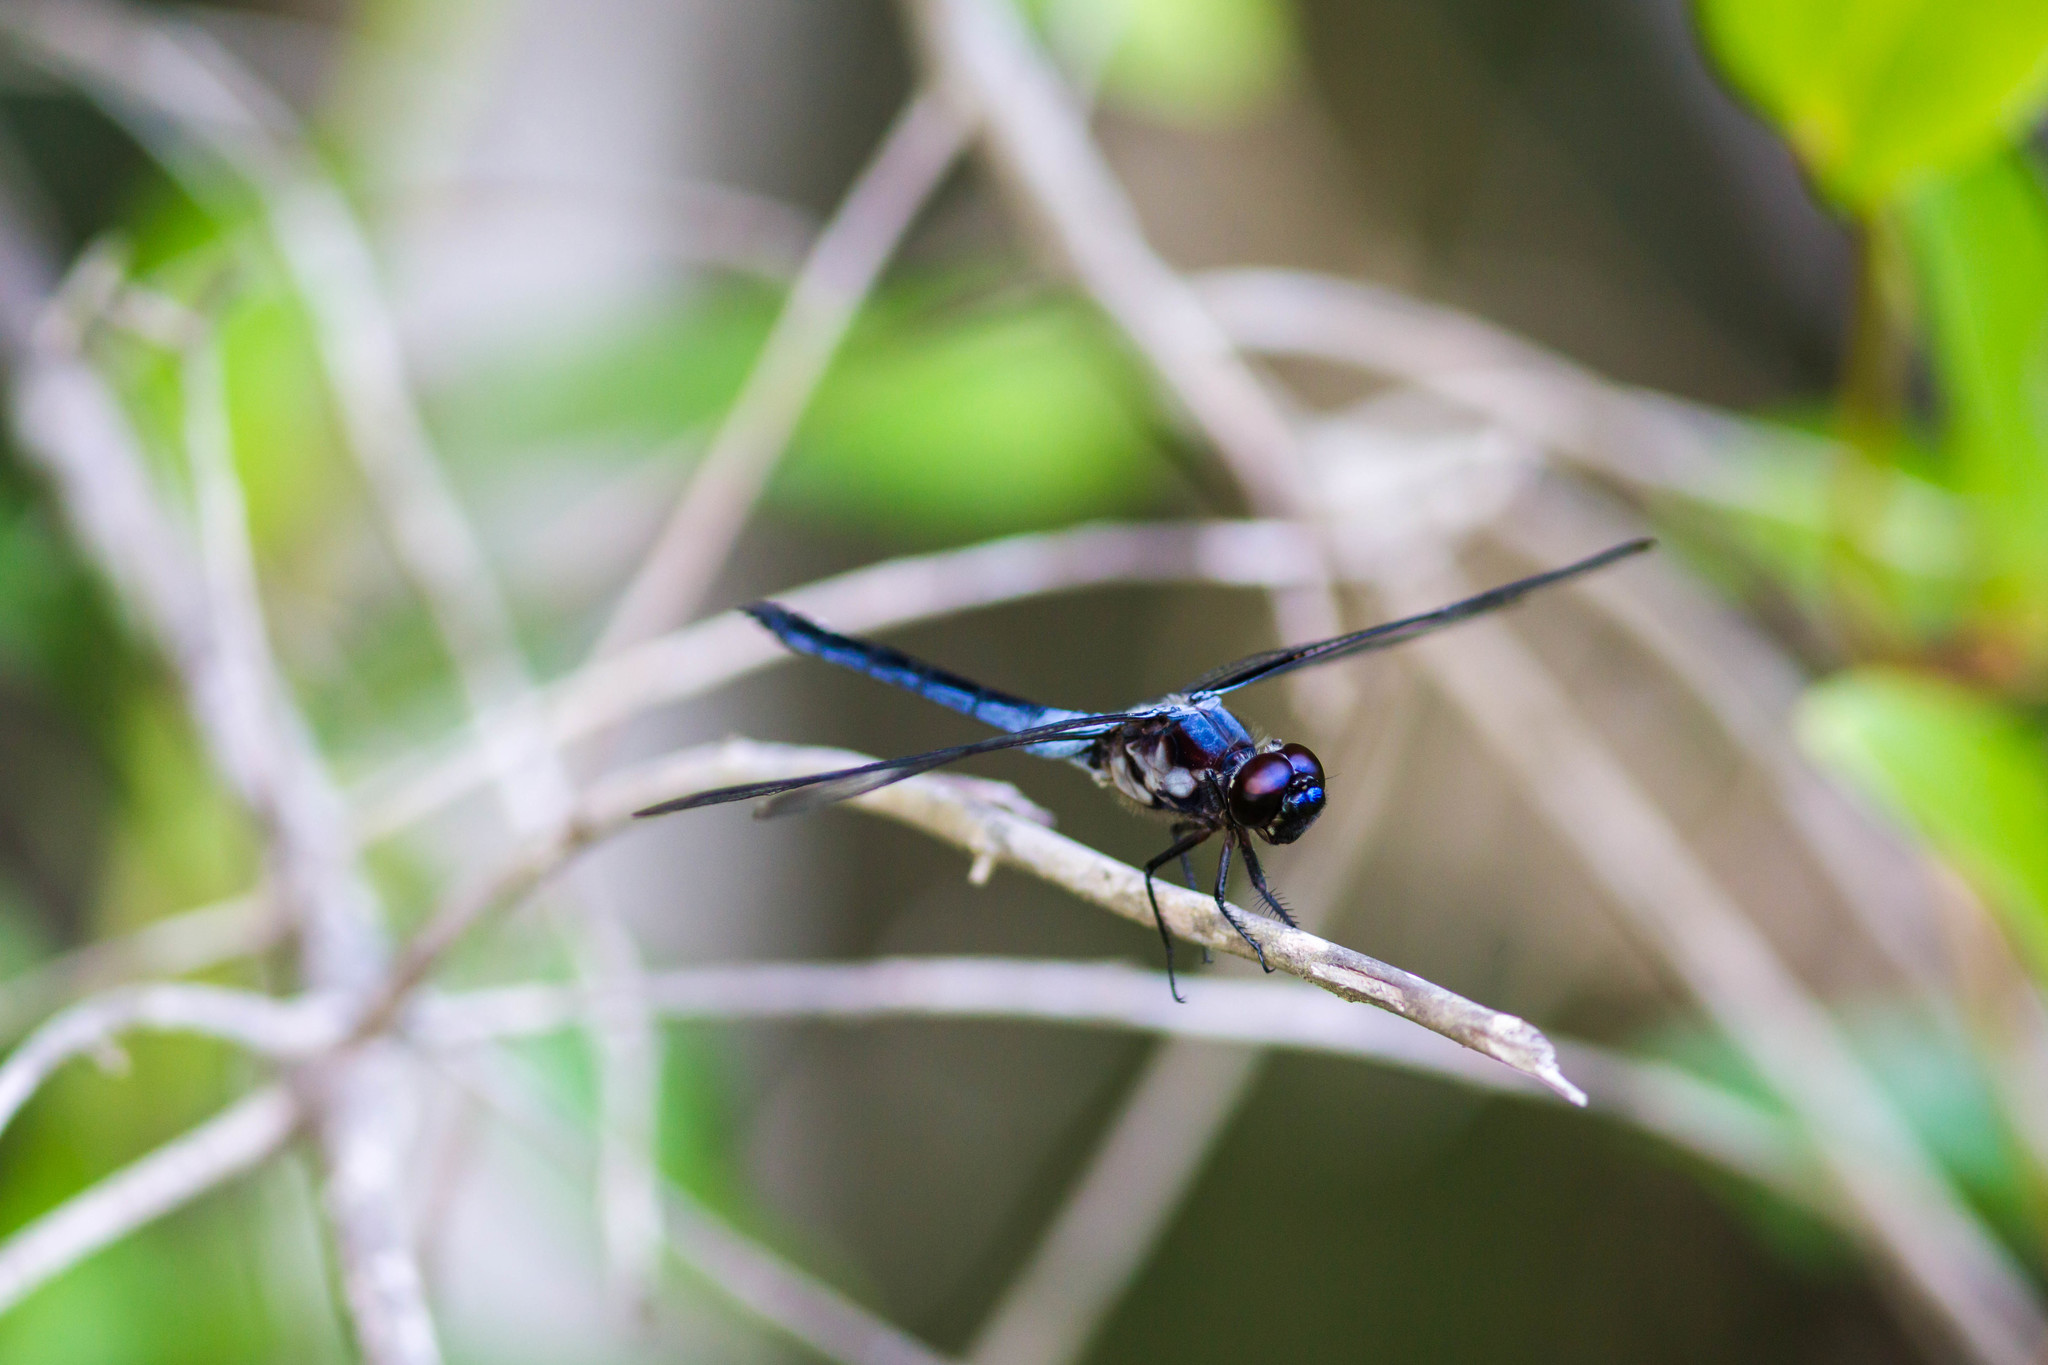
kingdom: Animalia
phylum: Arthropoda
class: Insecta
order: Odonata
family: Libellulidae
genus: Libellula
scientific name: Libellula axilena
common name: Bar-winged skimmer
